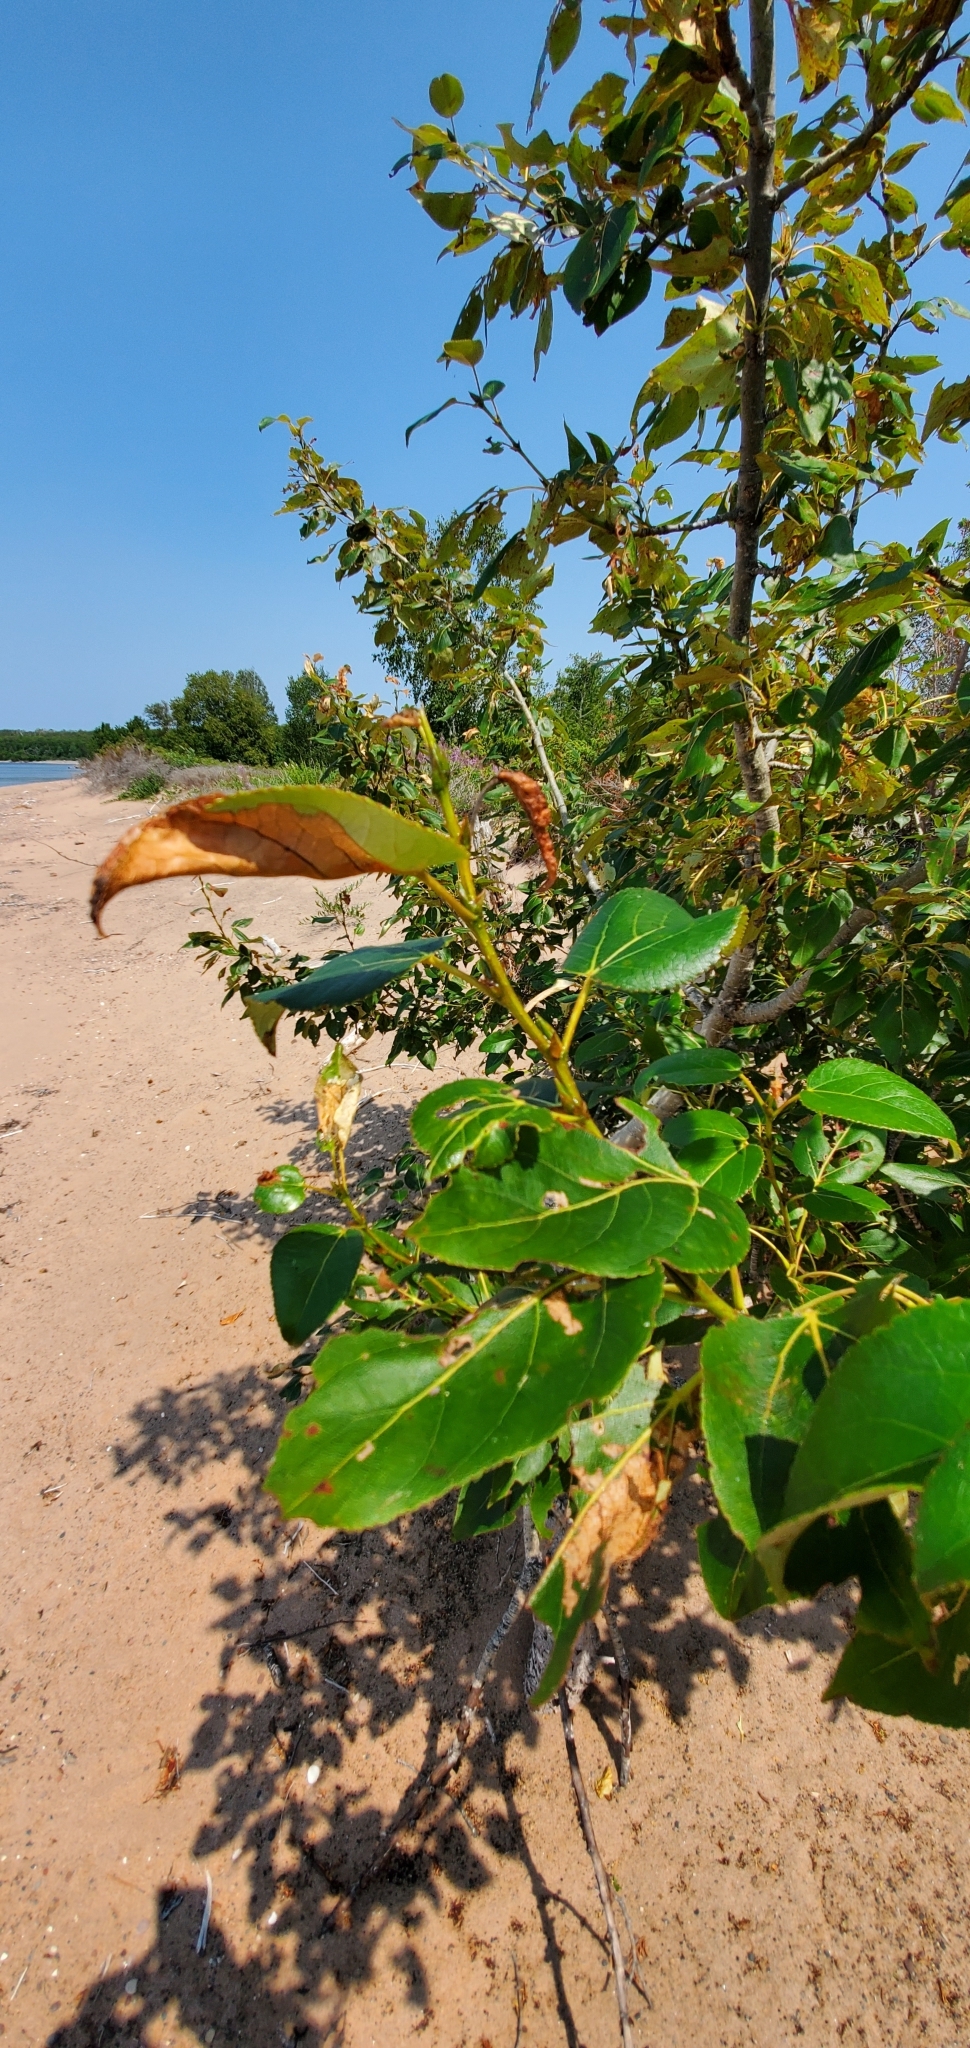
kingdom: Plantae
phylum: Tracheophyta
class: Magnoliopsida
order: Malpighiales
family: Salicaceae
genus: Populus
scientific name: Populus balsamifera
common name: Balsam poplar
